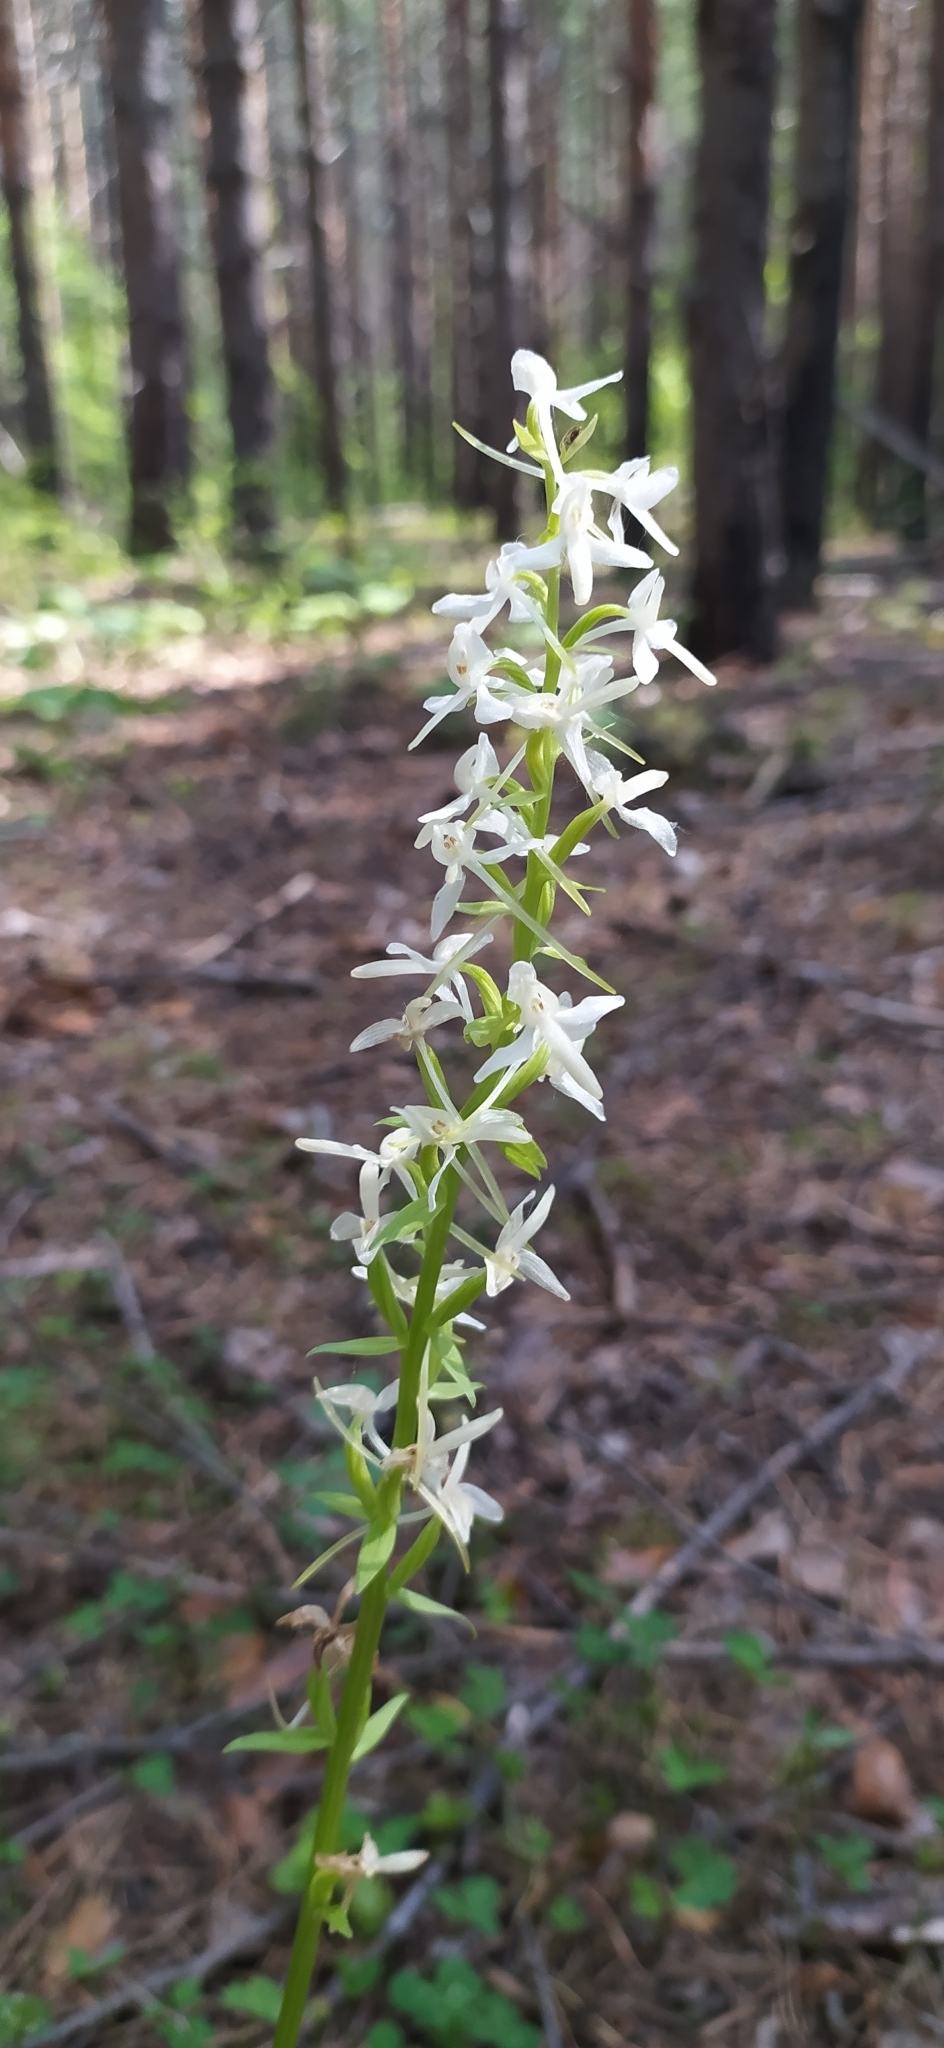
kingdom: Plantae
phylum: Tracheophyta
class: Liliopsida
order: Asparagales
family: Orchidaceae
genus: Platanthera
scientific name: Platanthera bifolia
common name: Lesser butterfly-orchid
